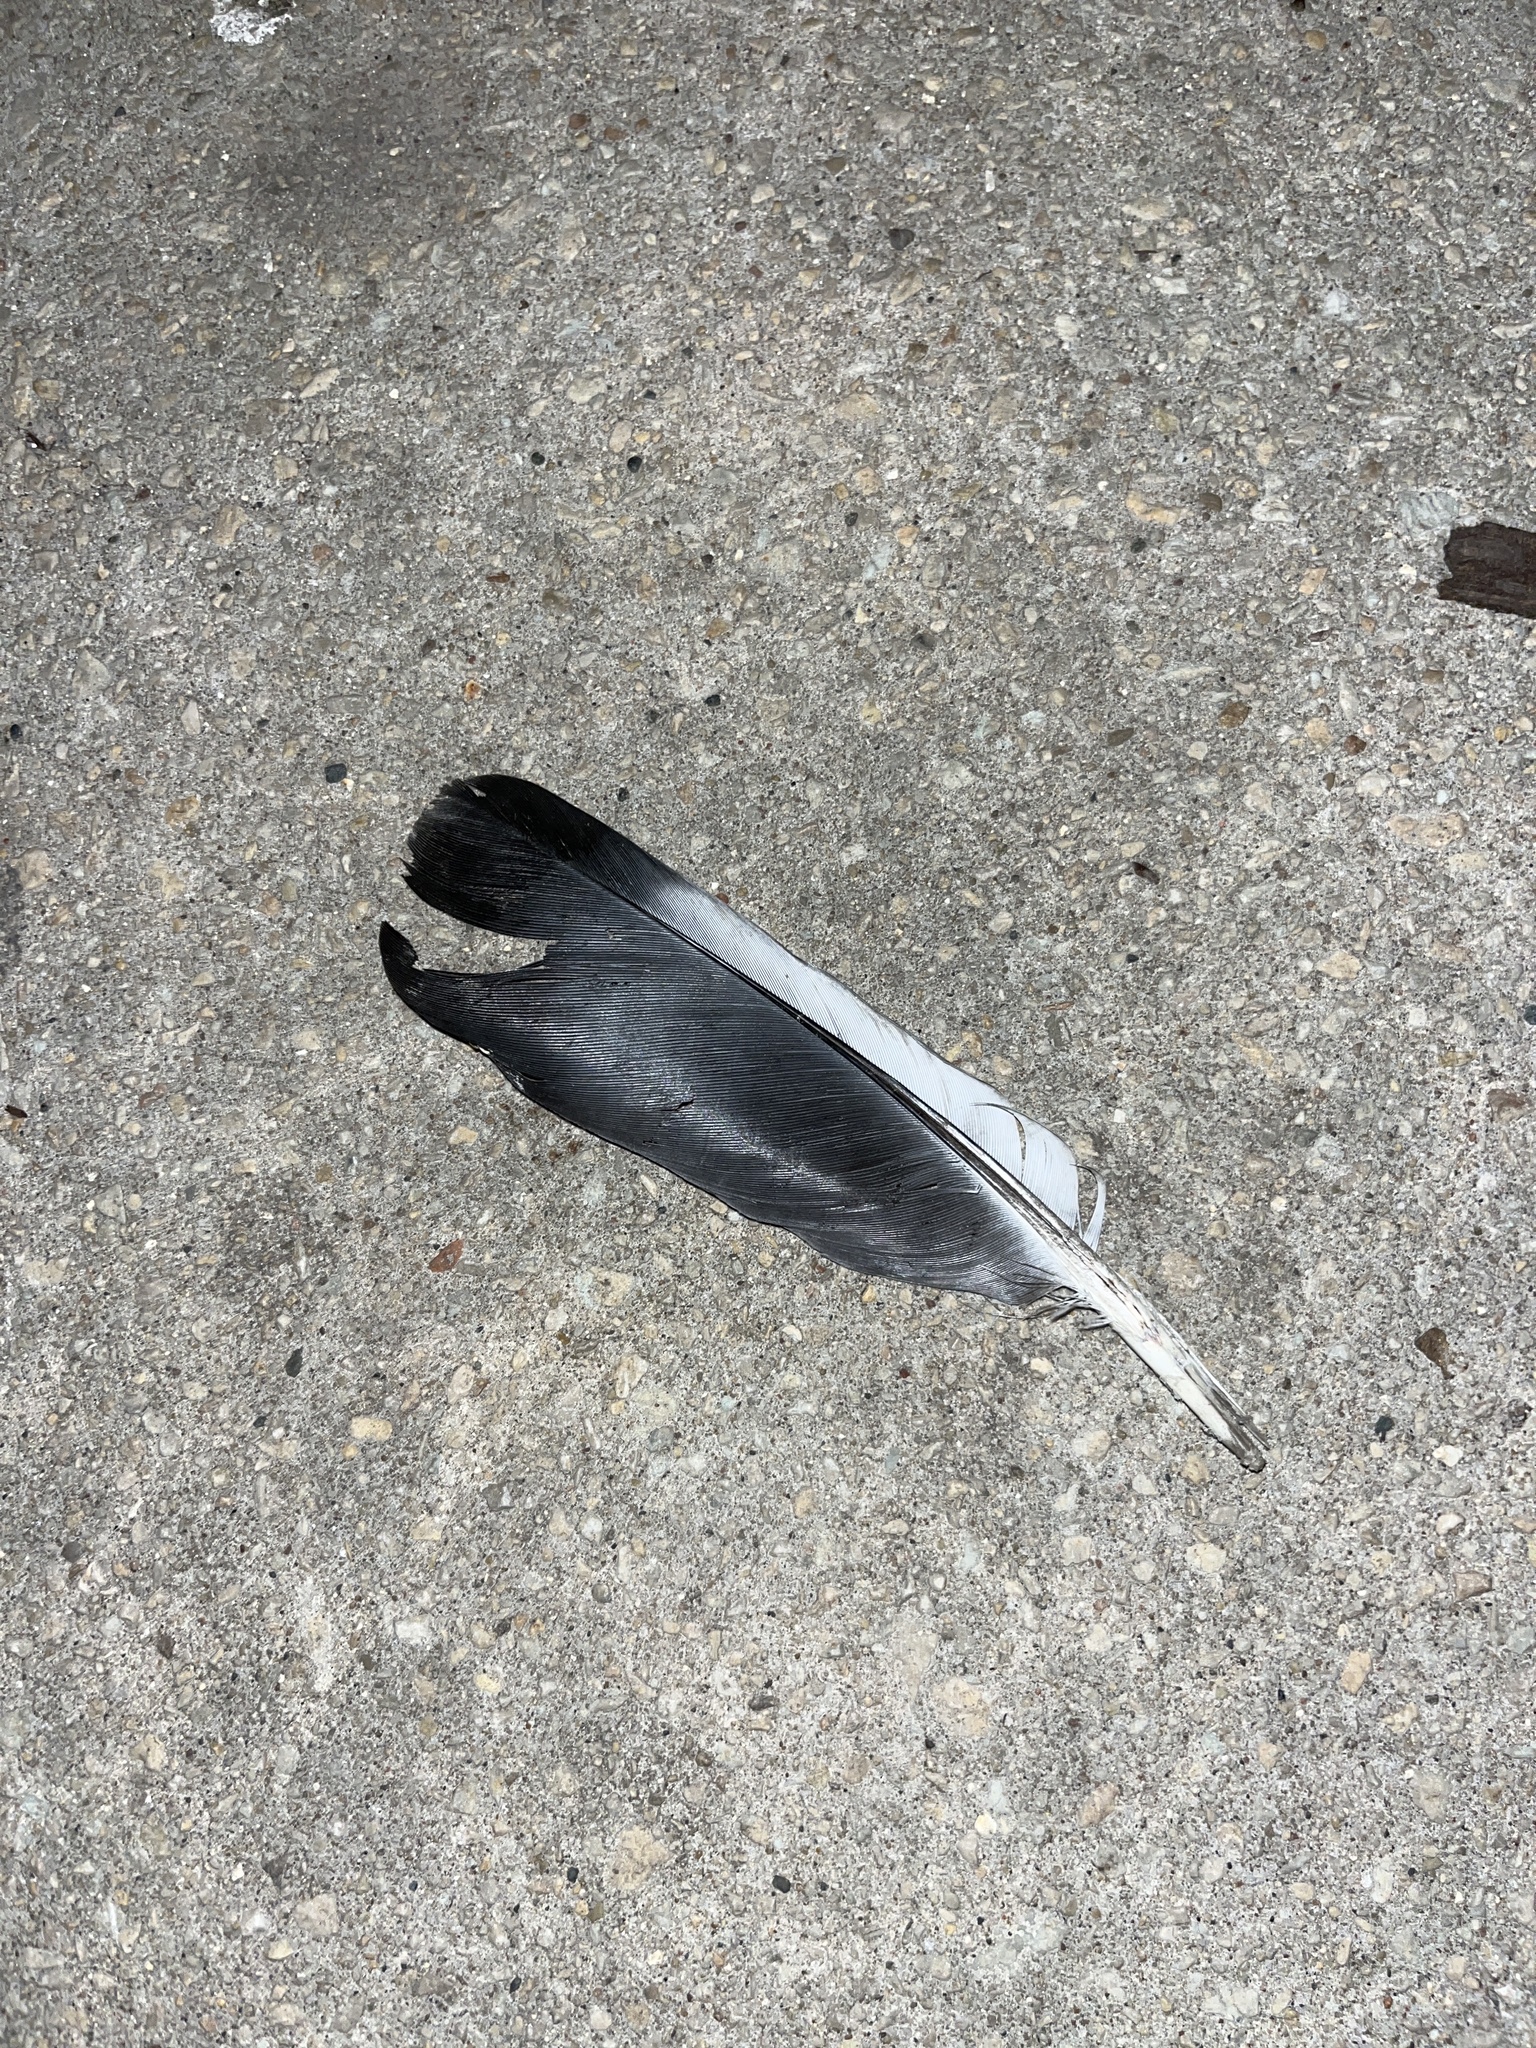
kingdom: Animalia
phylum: Chordata
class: Aves
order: Columbiformes
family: Columbidae
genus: Columba
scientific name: Columba livia
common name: Rock pigeon
